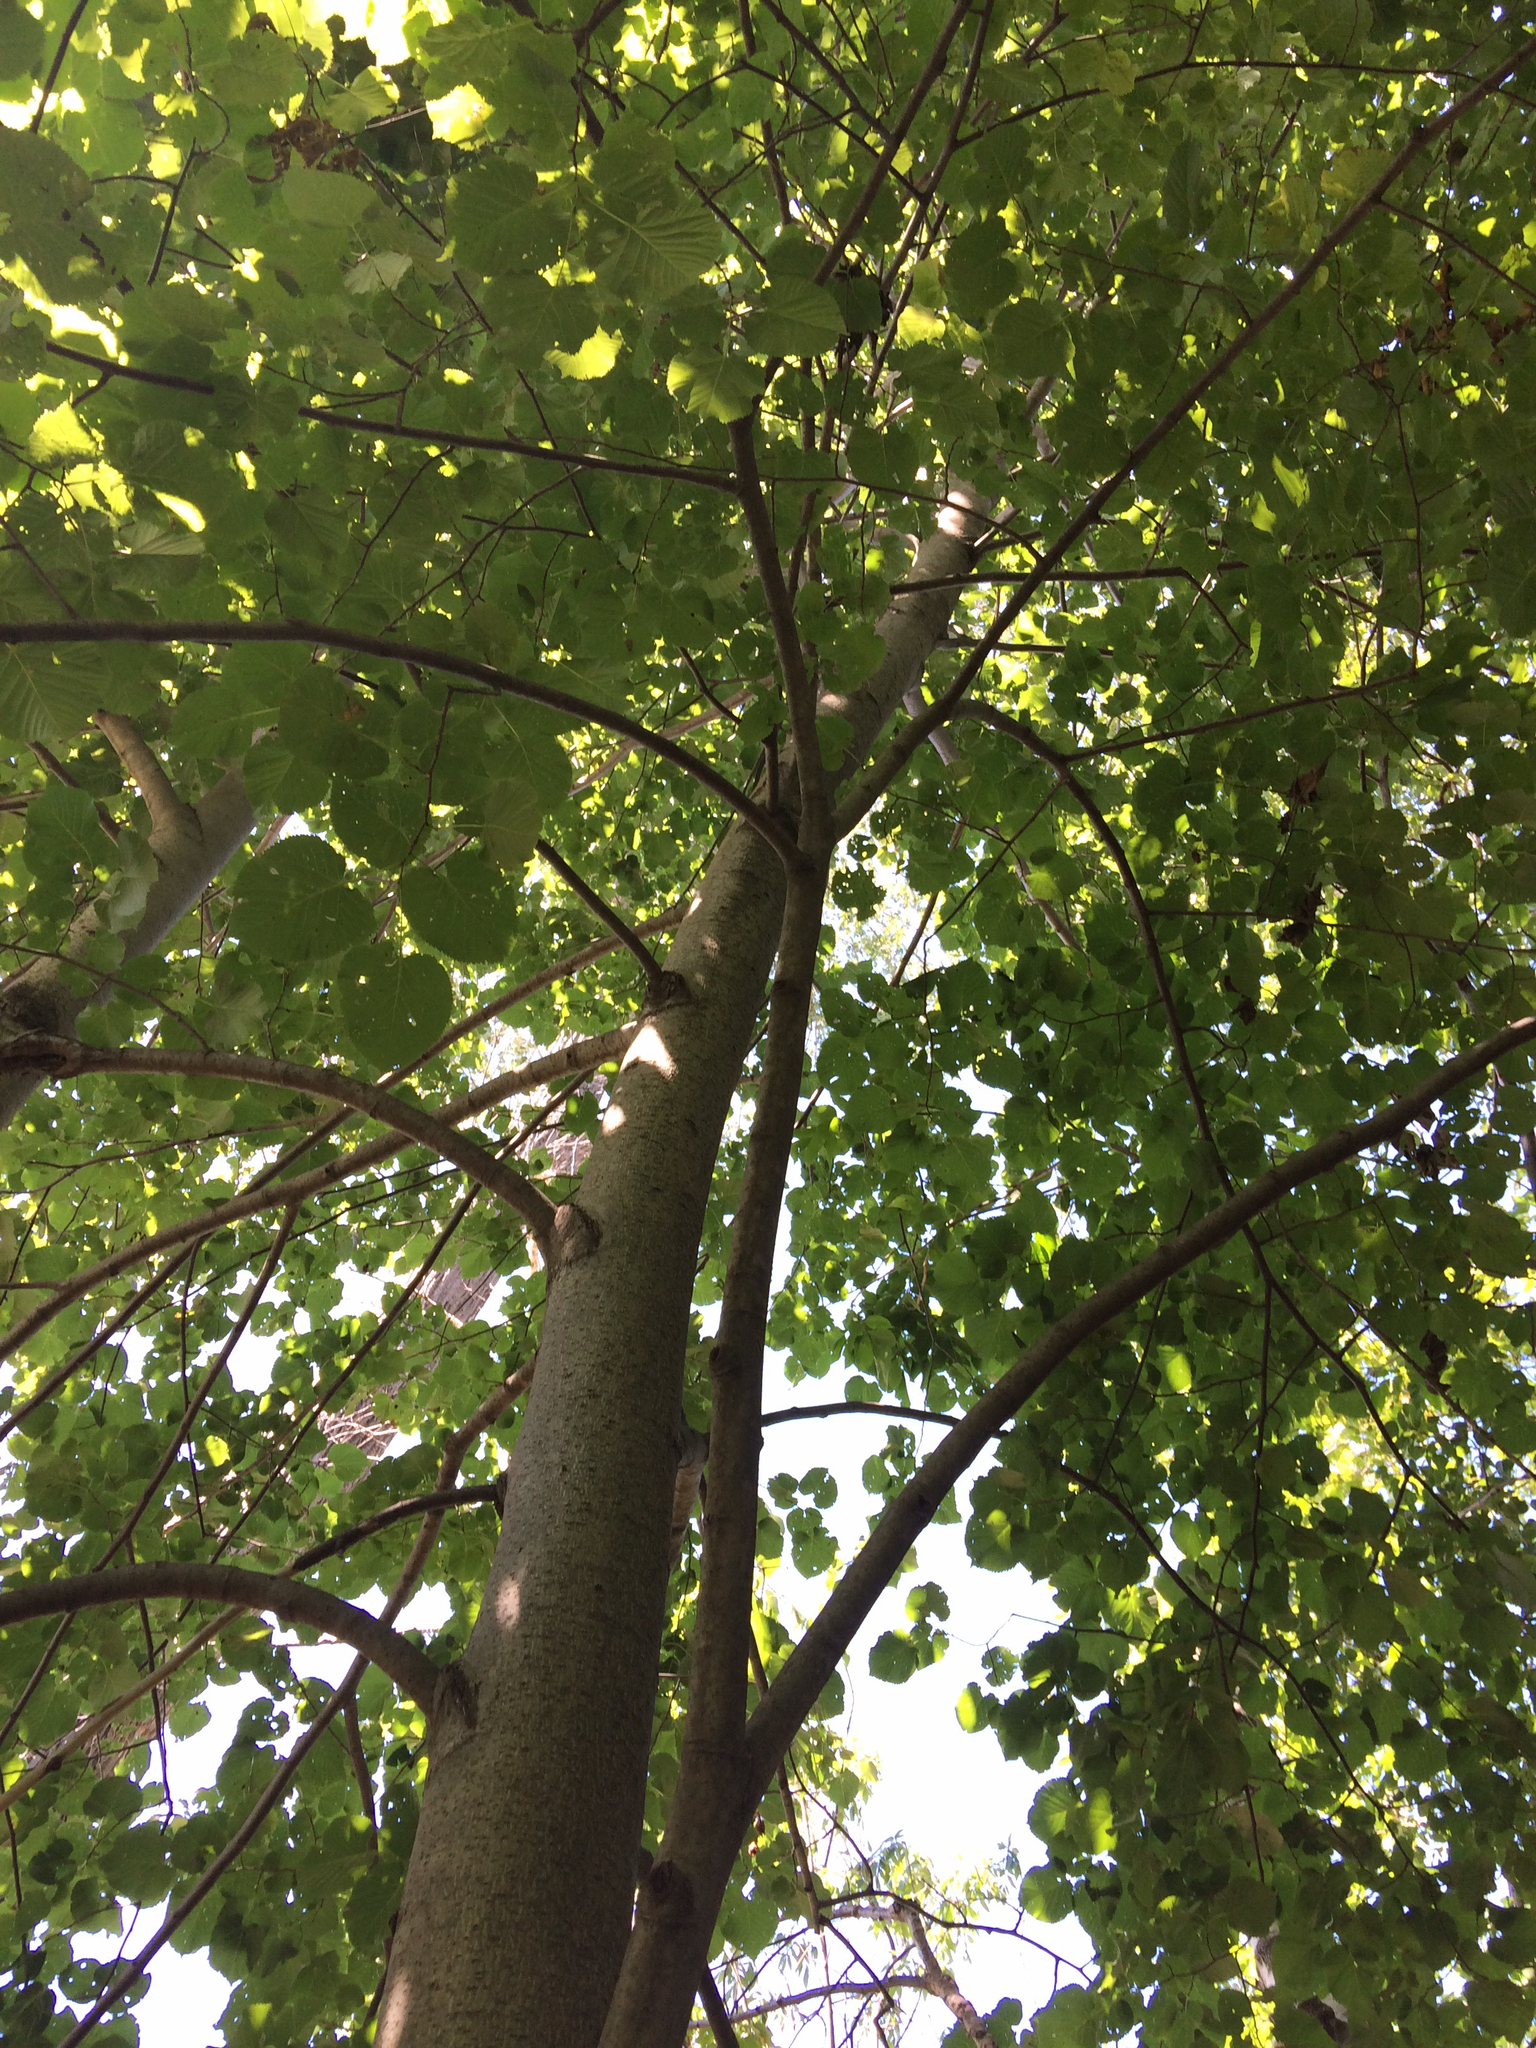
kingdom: Plantae
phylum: Tracheophyta
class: Magnoliopsida
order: Malvales
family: Malvaceae
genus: Tilia
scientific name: Tilia americana
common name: Basswood
